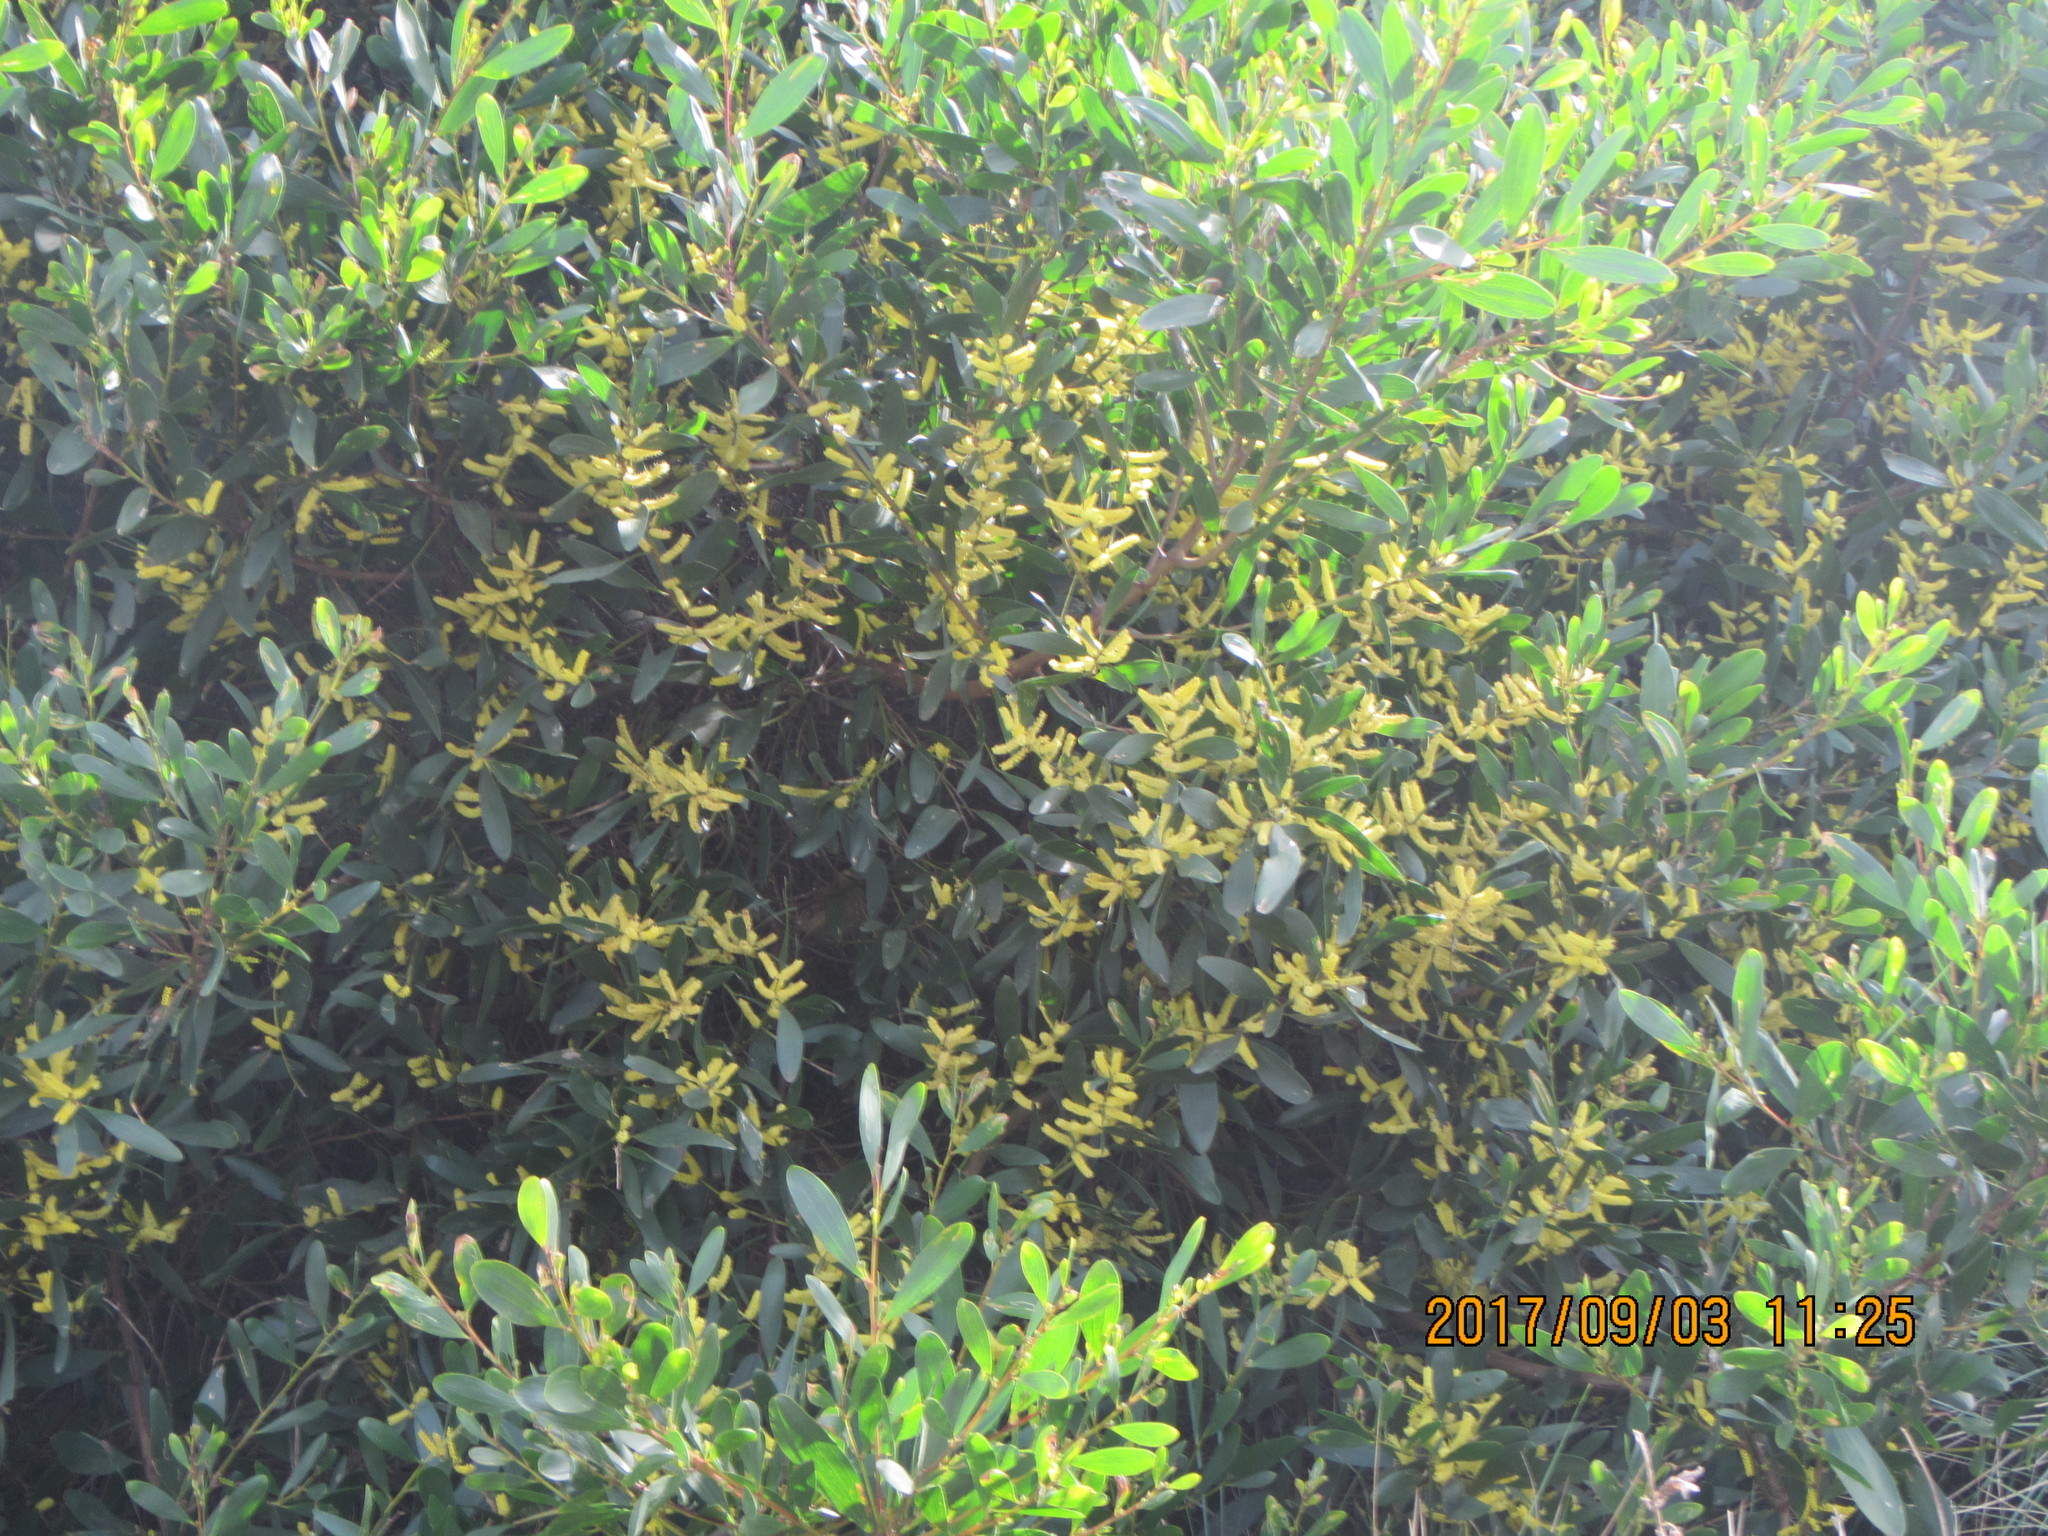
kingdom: Plantae
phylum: Tracheophyta
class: Magnoliopsida
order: Fabales
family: Fabaceae
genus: Acacia
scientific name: Acacia longifolia
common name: Sydney golden wattle
